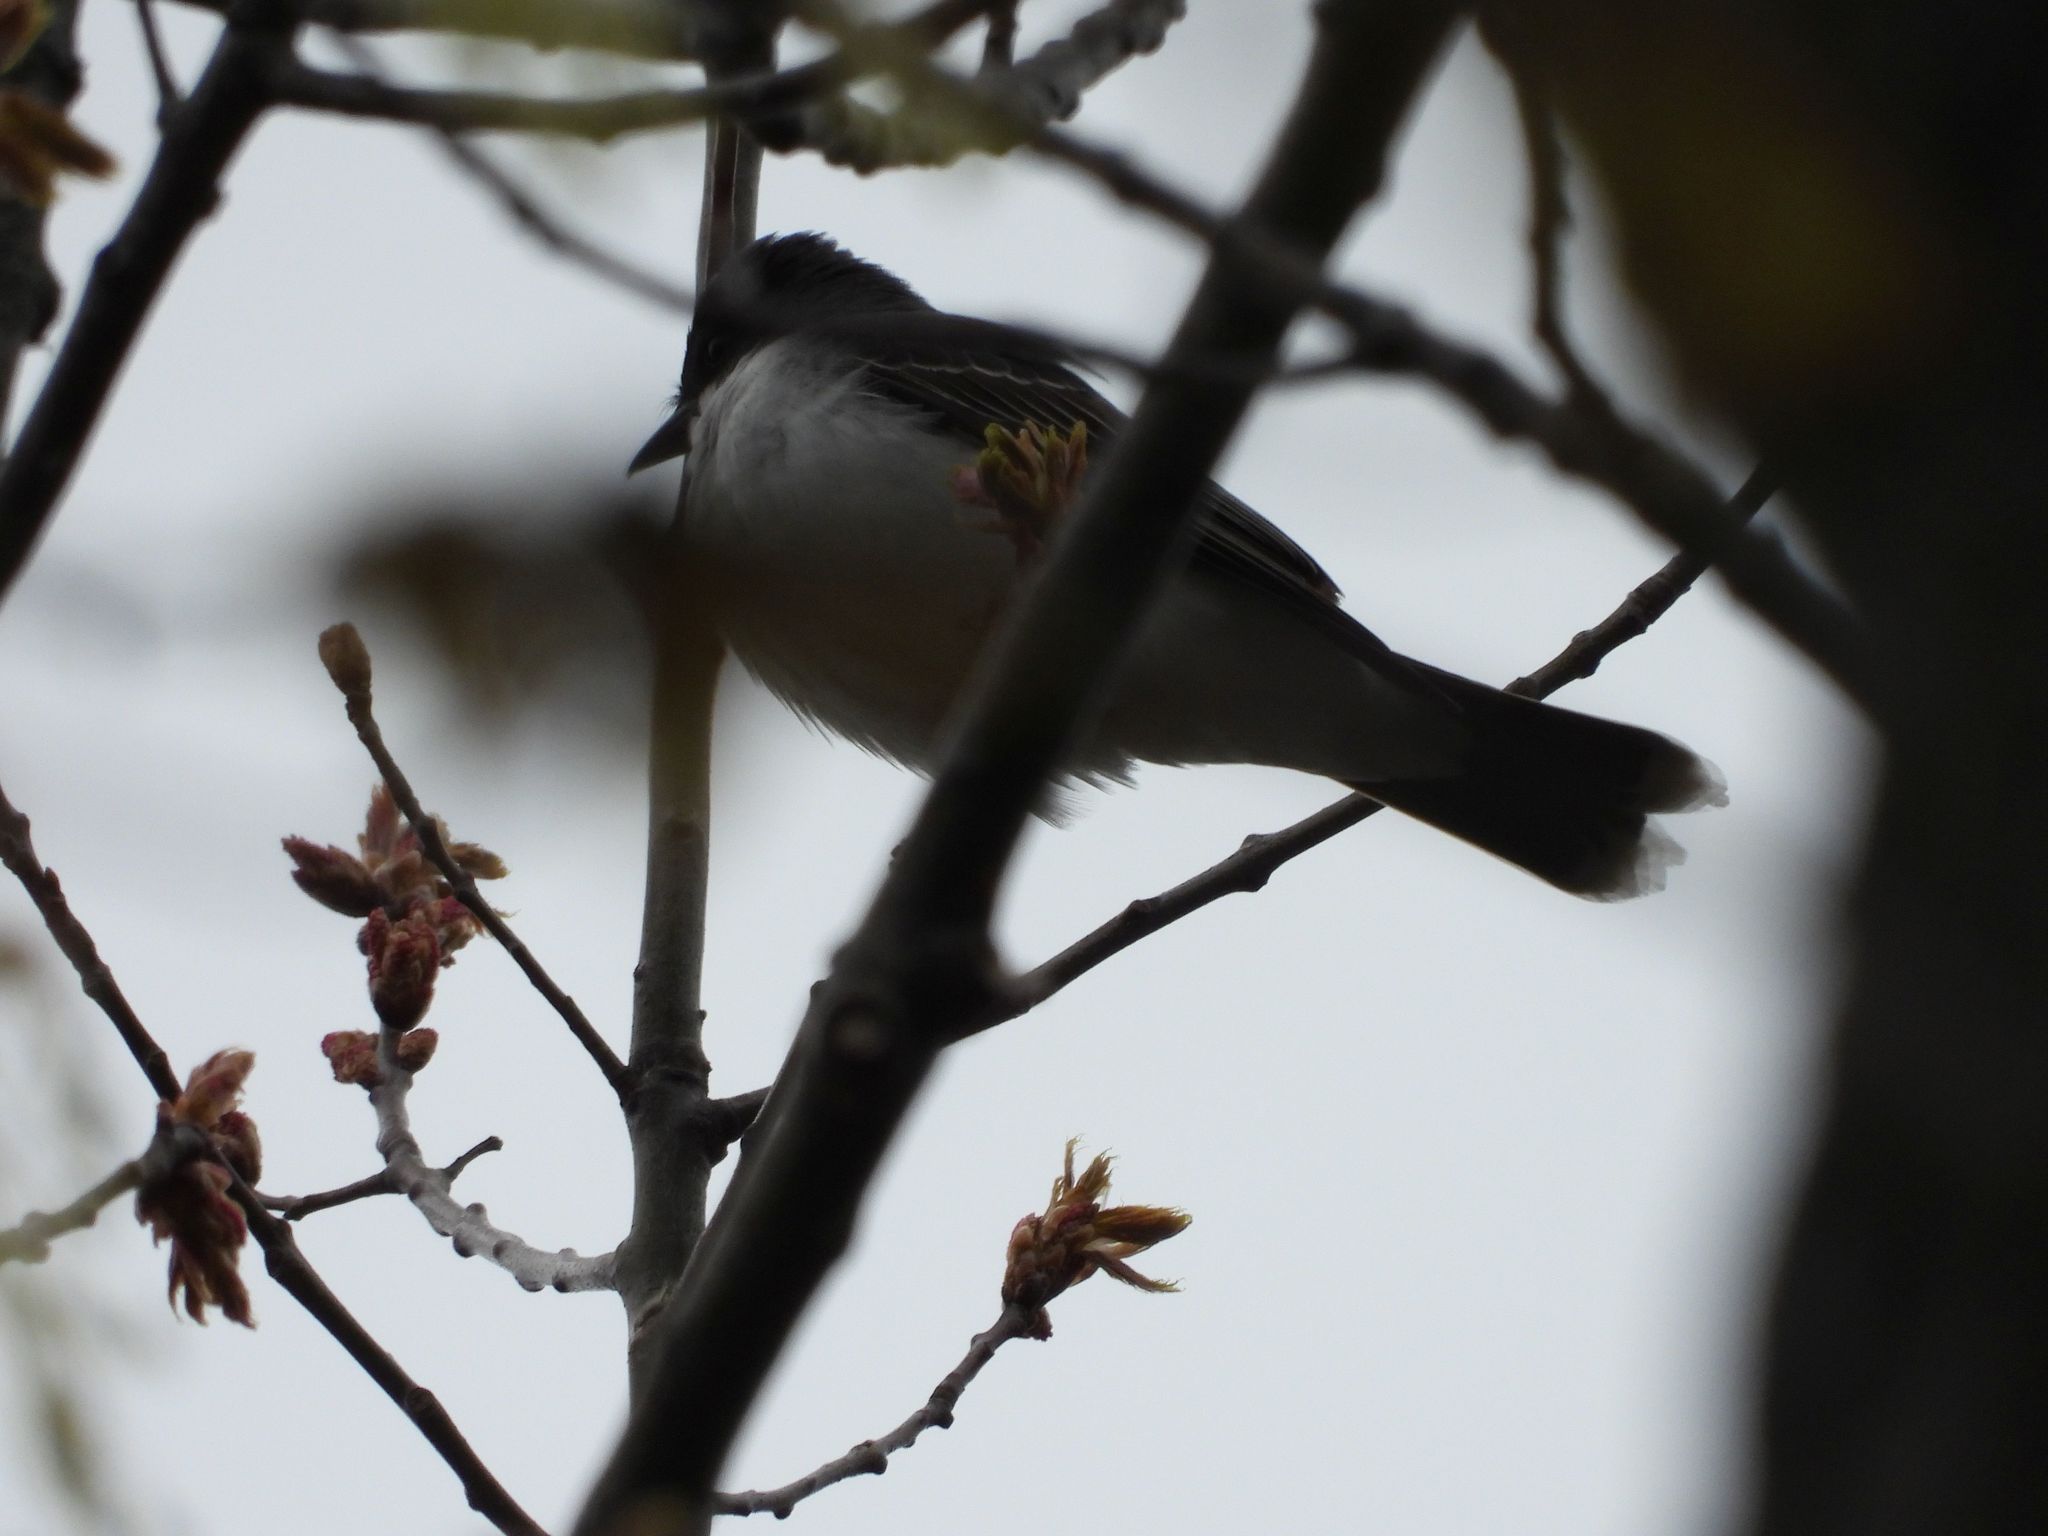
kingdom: Animalia
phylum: Chordata
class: Aves
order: Passeriformes
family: Tyrannidae
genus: Tyrannus
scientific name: Tyrannus tyrannus
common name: Eastern kingbird
